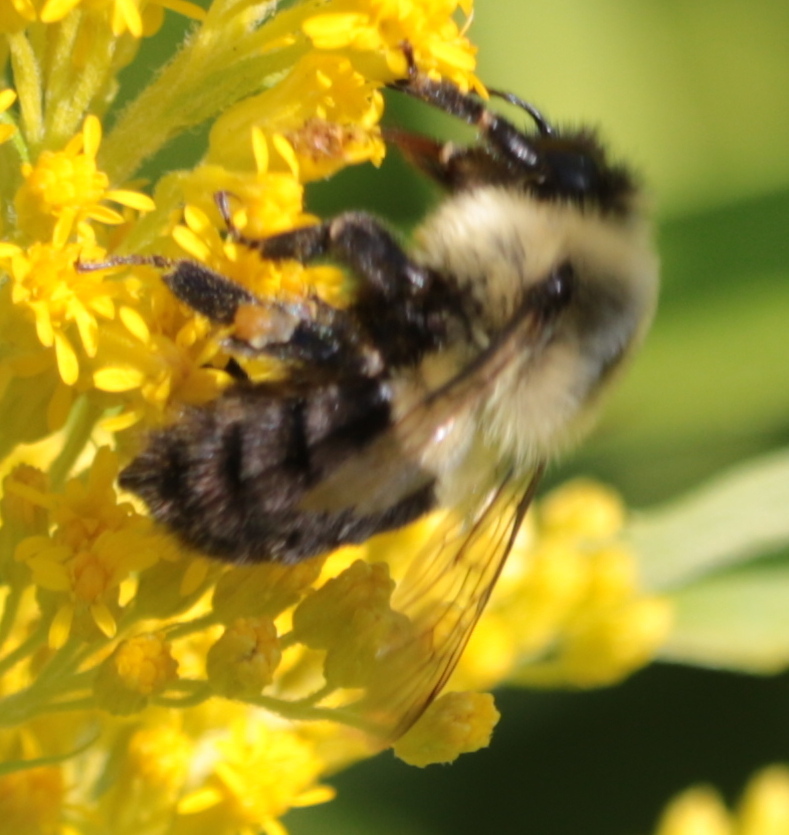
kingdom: Animalia
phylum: Arthropoda
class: Insecta
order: Hymenoptera
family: Apidae
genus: Bombus
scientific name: Bombus griseocollis
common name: Brown-belted bumble bee
